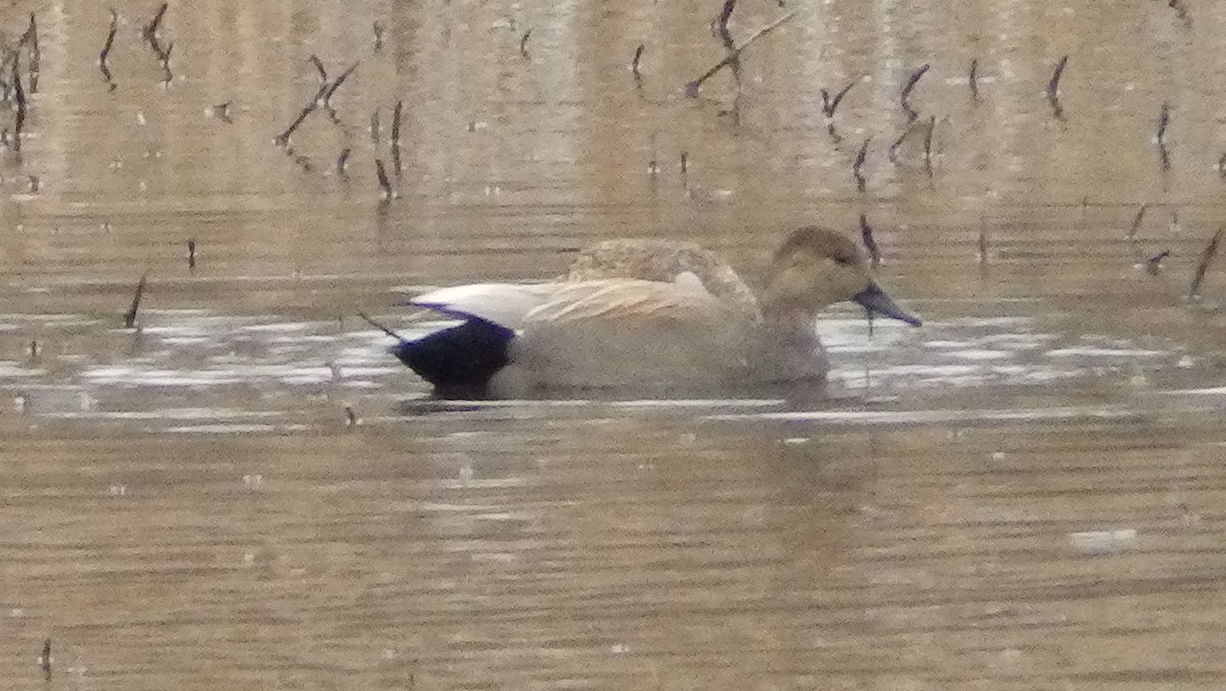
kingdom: Animalia
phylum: Chordata
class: Aves
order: Anseriformes
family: Anatidae
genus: Mareca
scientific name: Mareca strepera
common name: Gadwall
